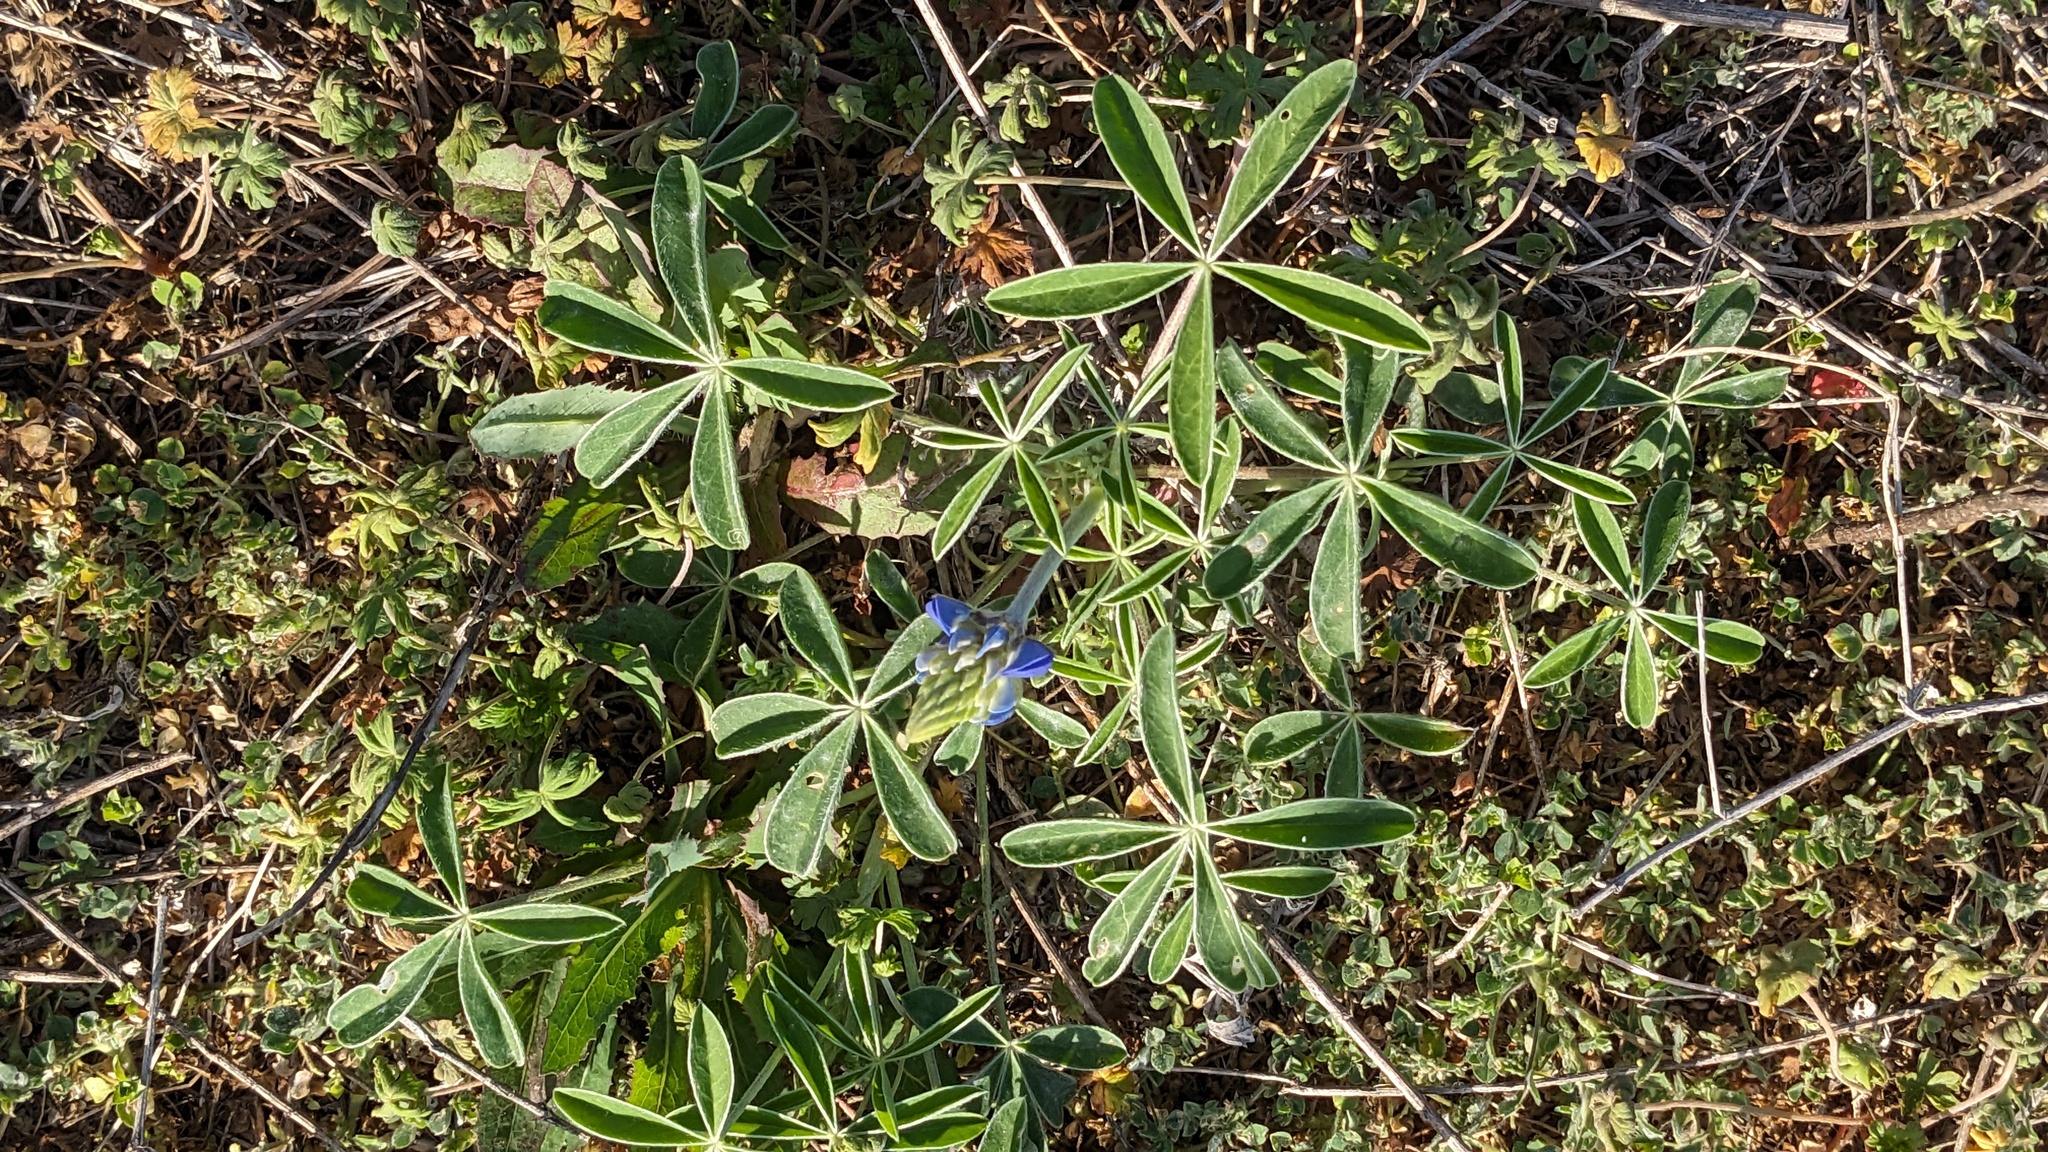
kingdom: Plantae
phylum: Tracheophyta
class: Magnoliopsida
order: Fabales
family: Fabaceae
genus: Lupinus
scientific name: Lupinus texensis
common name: Texas bluebonnet
